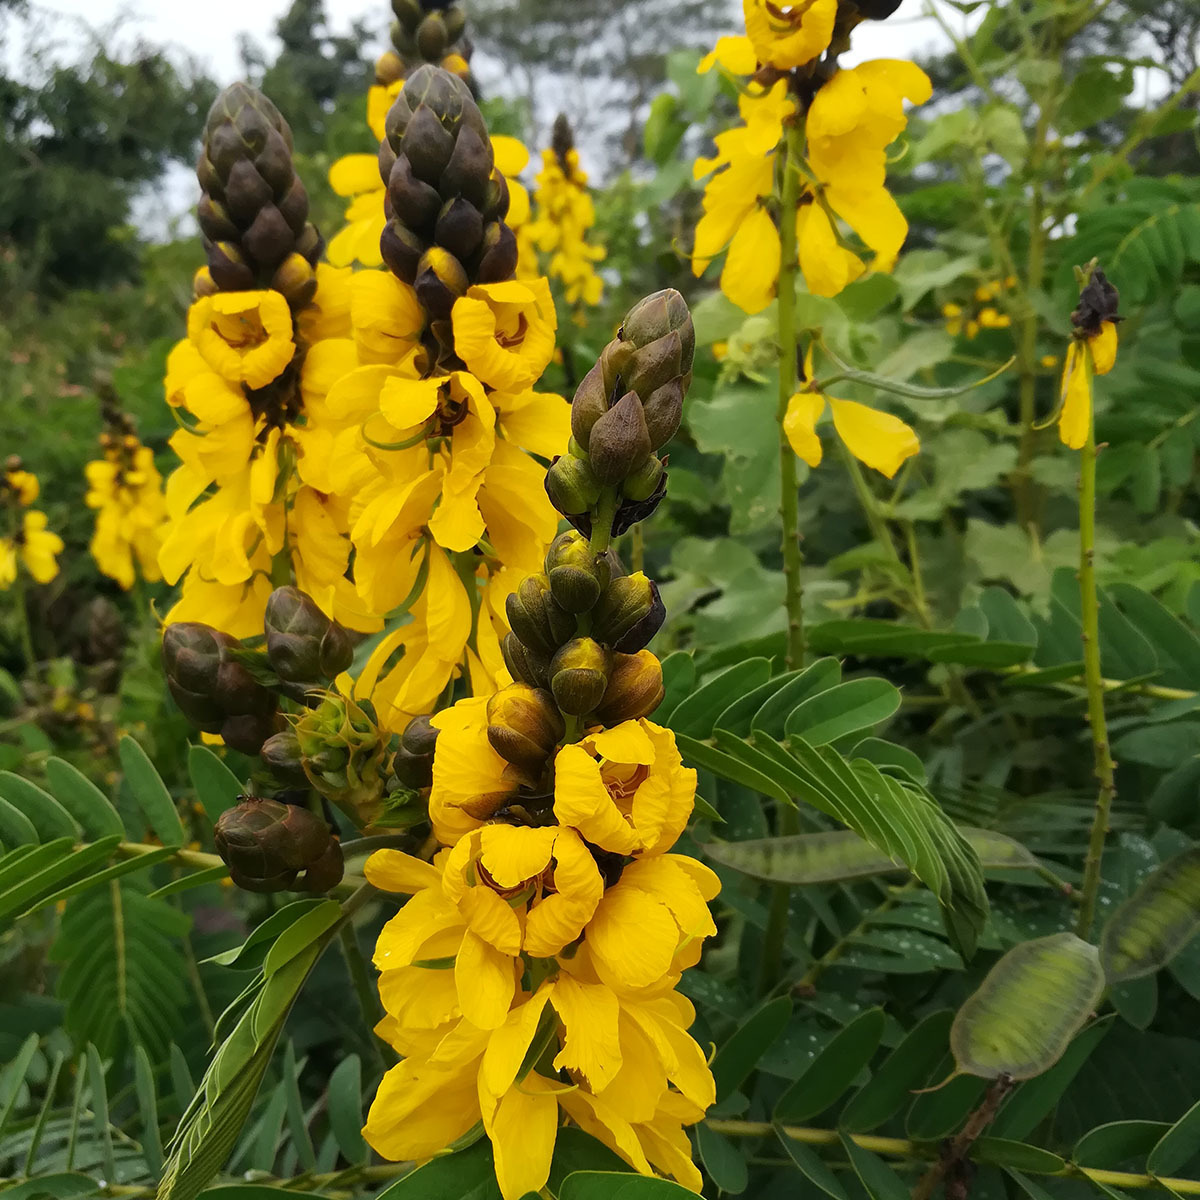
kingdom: Plantae
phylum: Tracheophyta
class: Magnoliopsida
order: Fabales
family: Fabaceae
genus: Senna
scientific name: Senna didymobotrya
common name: African senna
